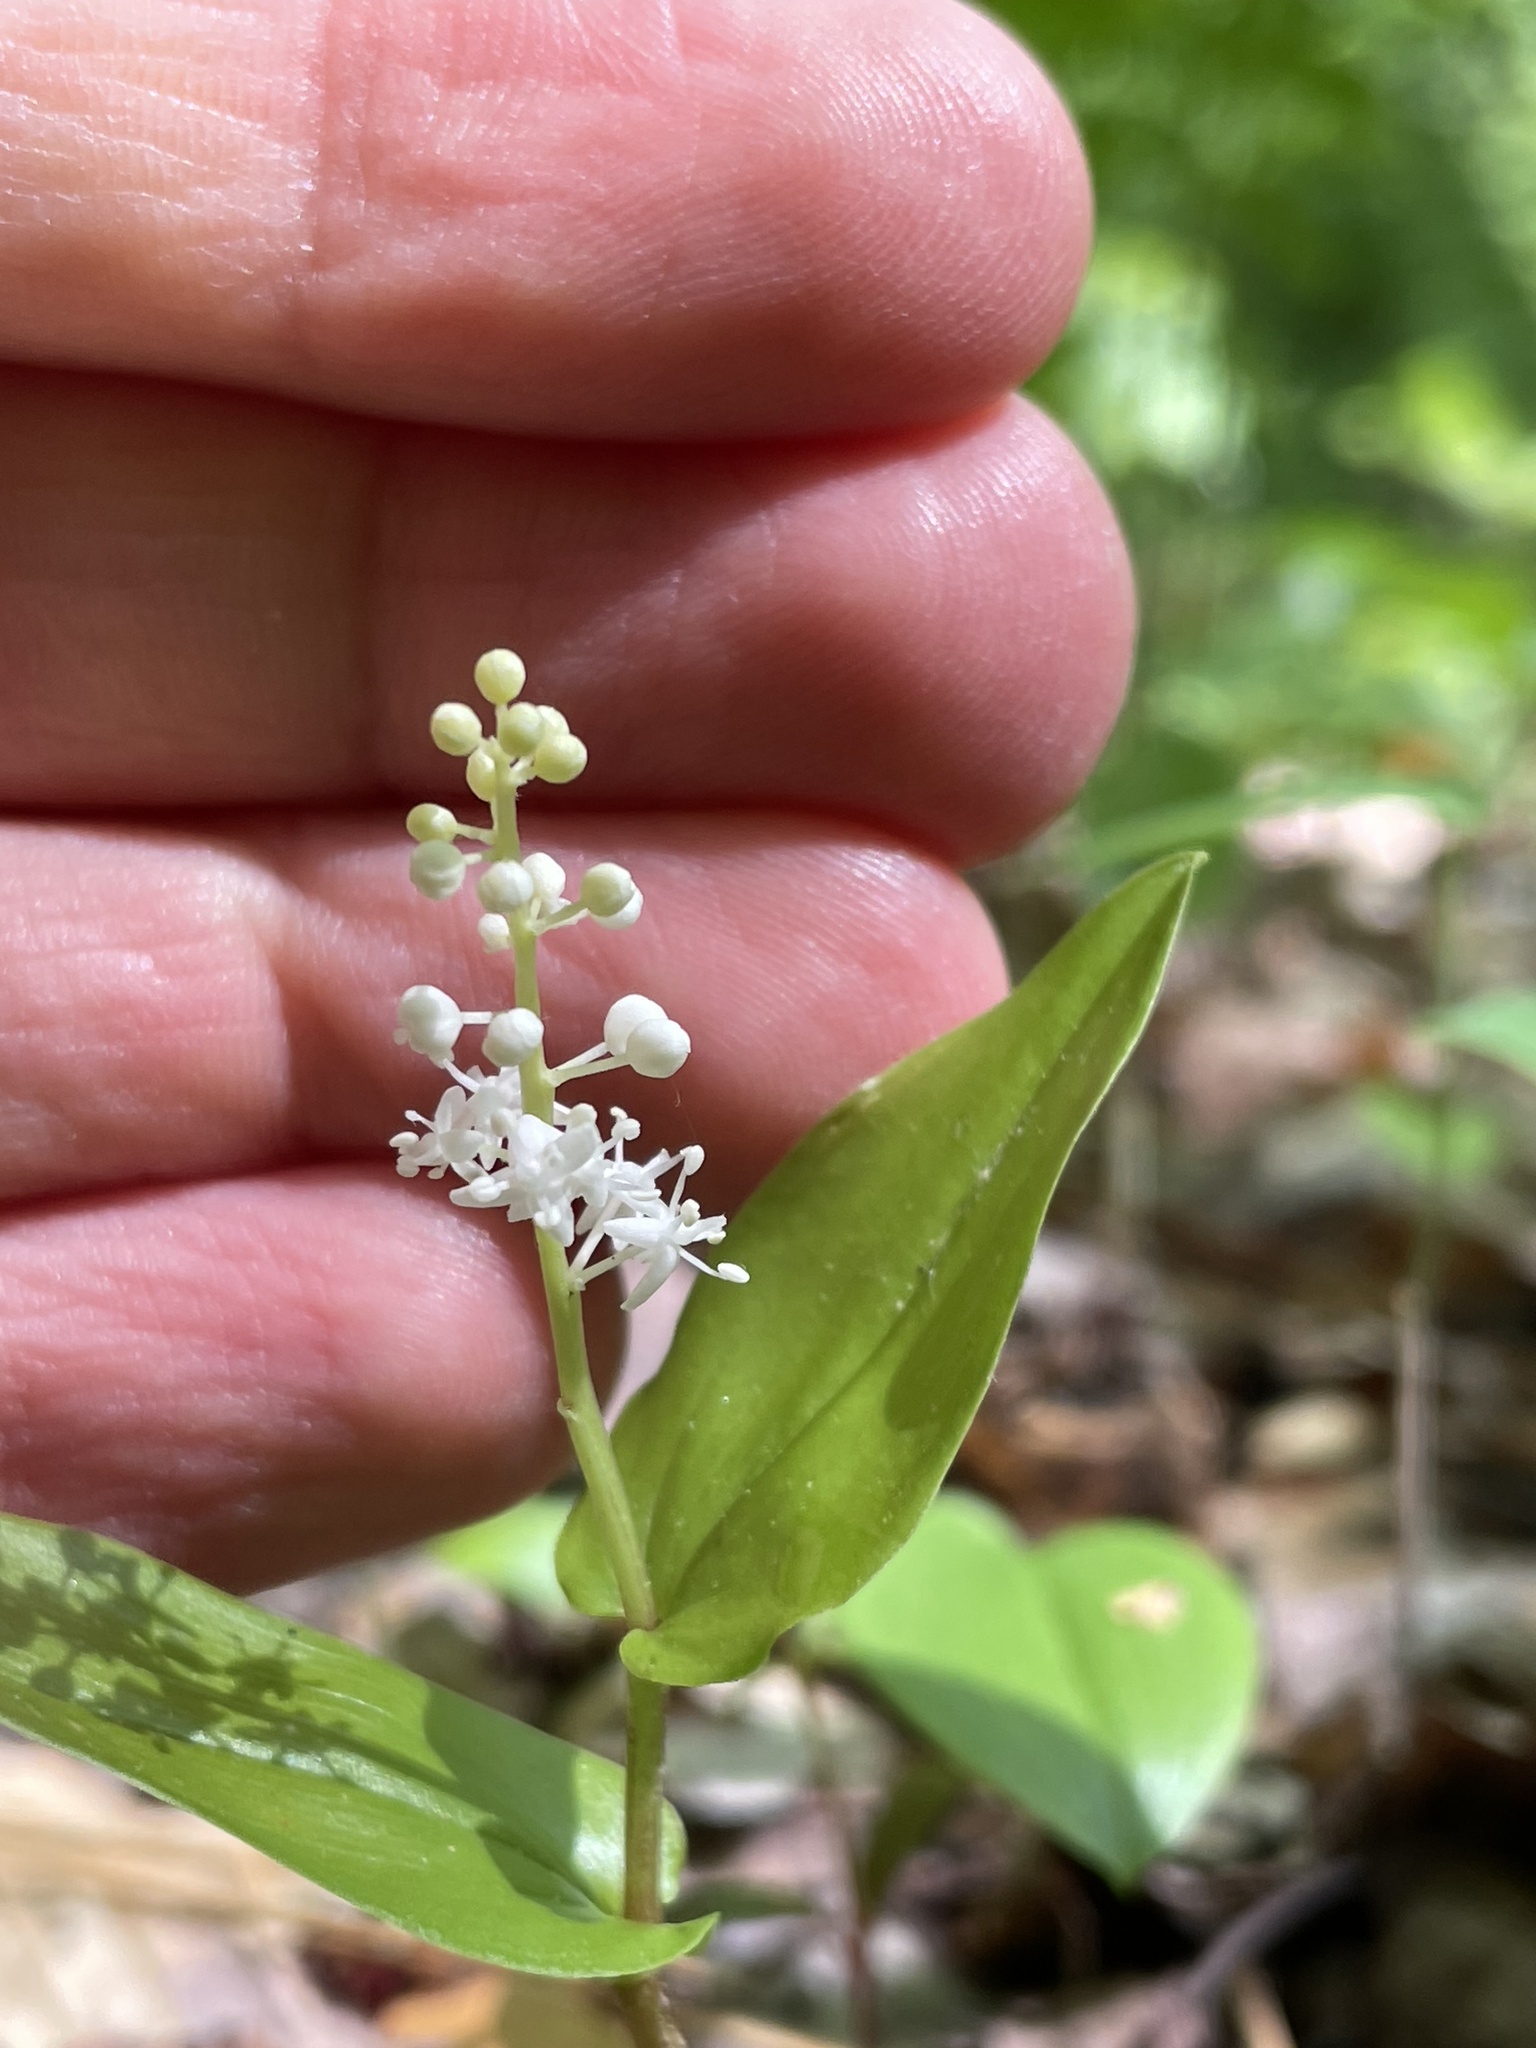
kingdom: Plantae
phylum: Tracheophyta
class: Liliopsida
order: Asparagales
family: Asparagaceae
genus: Maianthemum
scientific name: Maianthemum canadense
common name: False lily-of-the-valley
